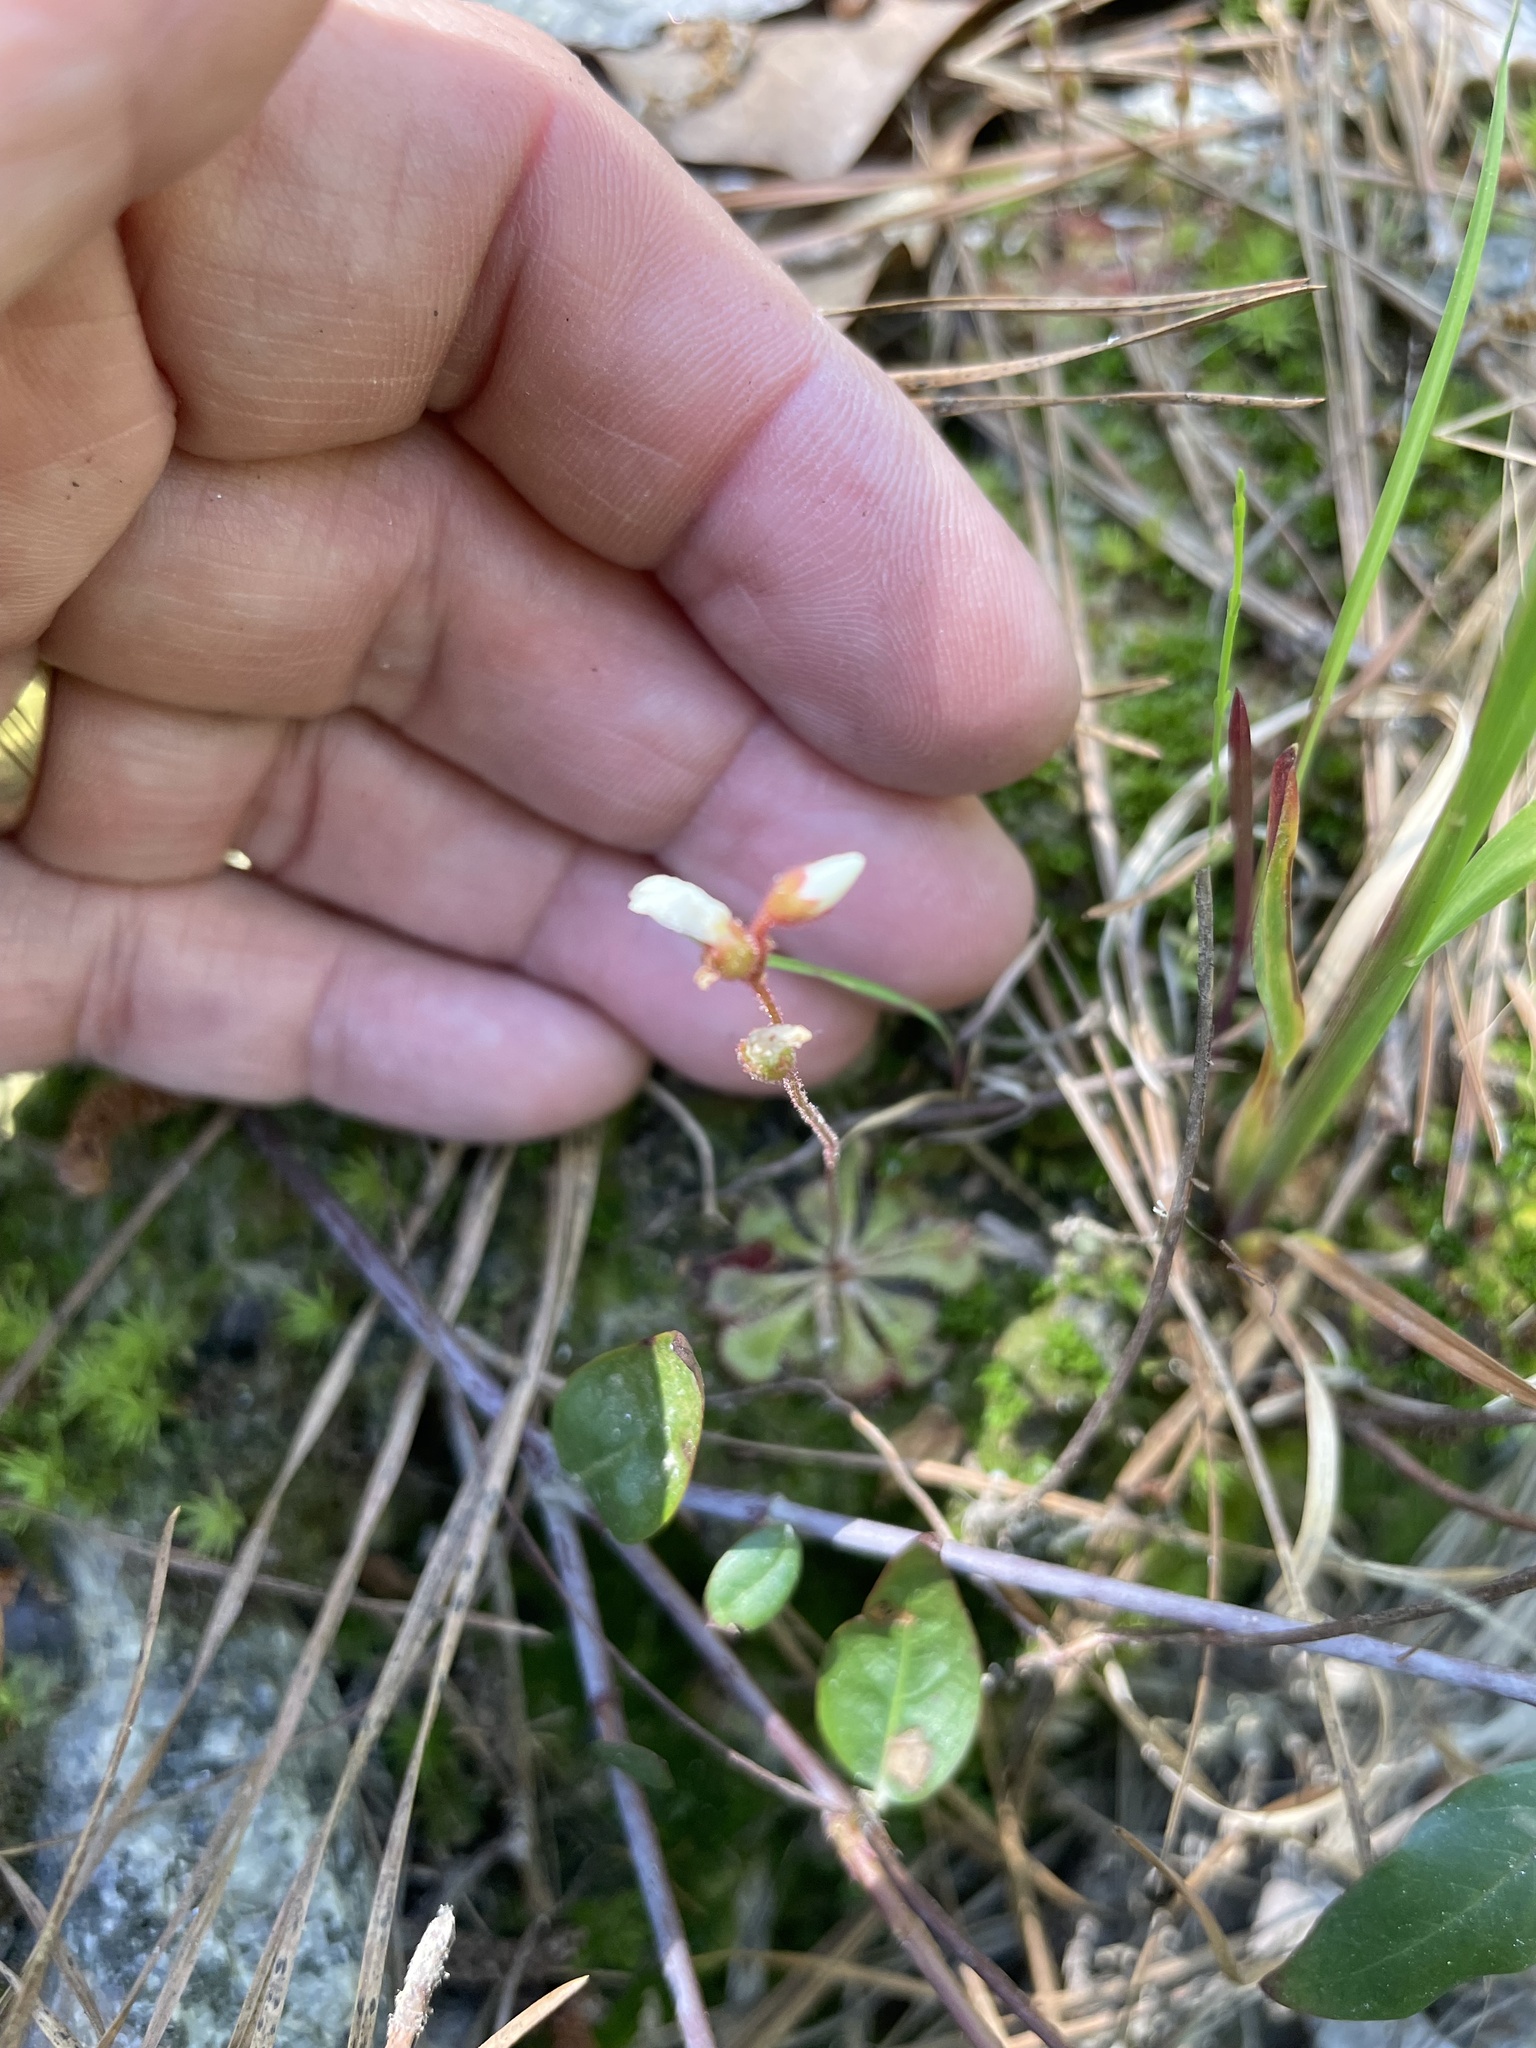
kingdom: Plantae
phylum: Tracheophyta
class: Magnoliopsida
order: Caryophyllales
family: Droseraceae
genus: Drosera
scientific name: Drosera brevifolia
